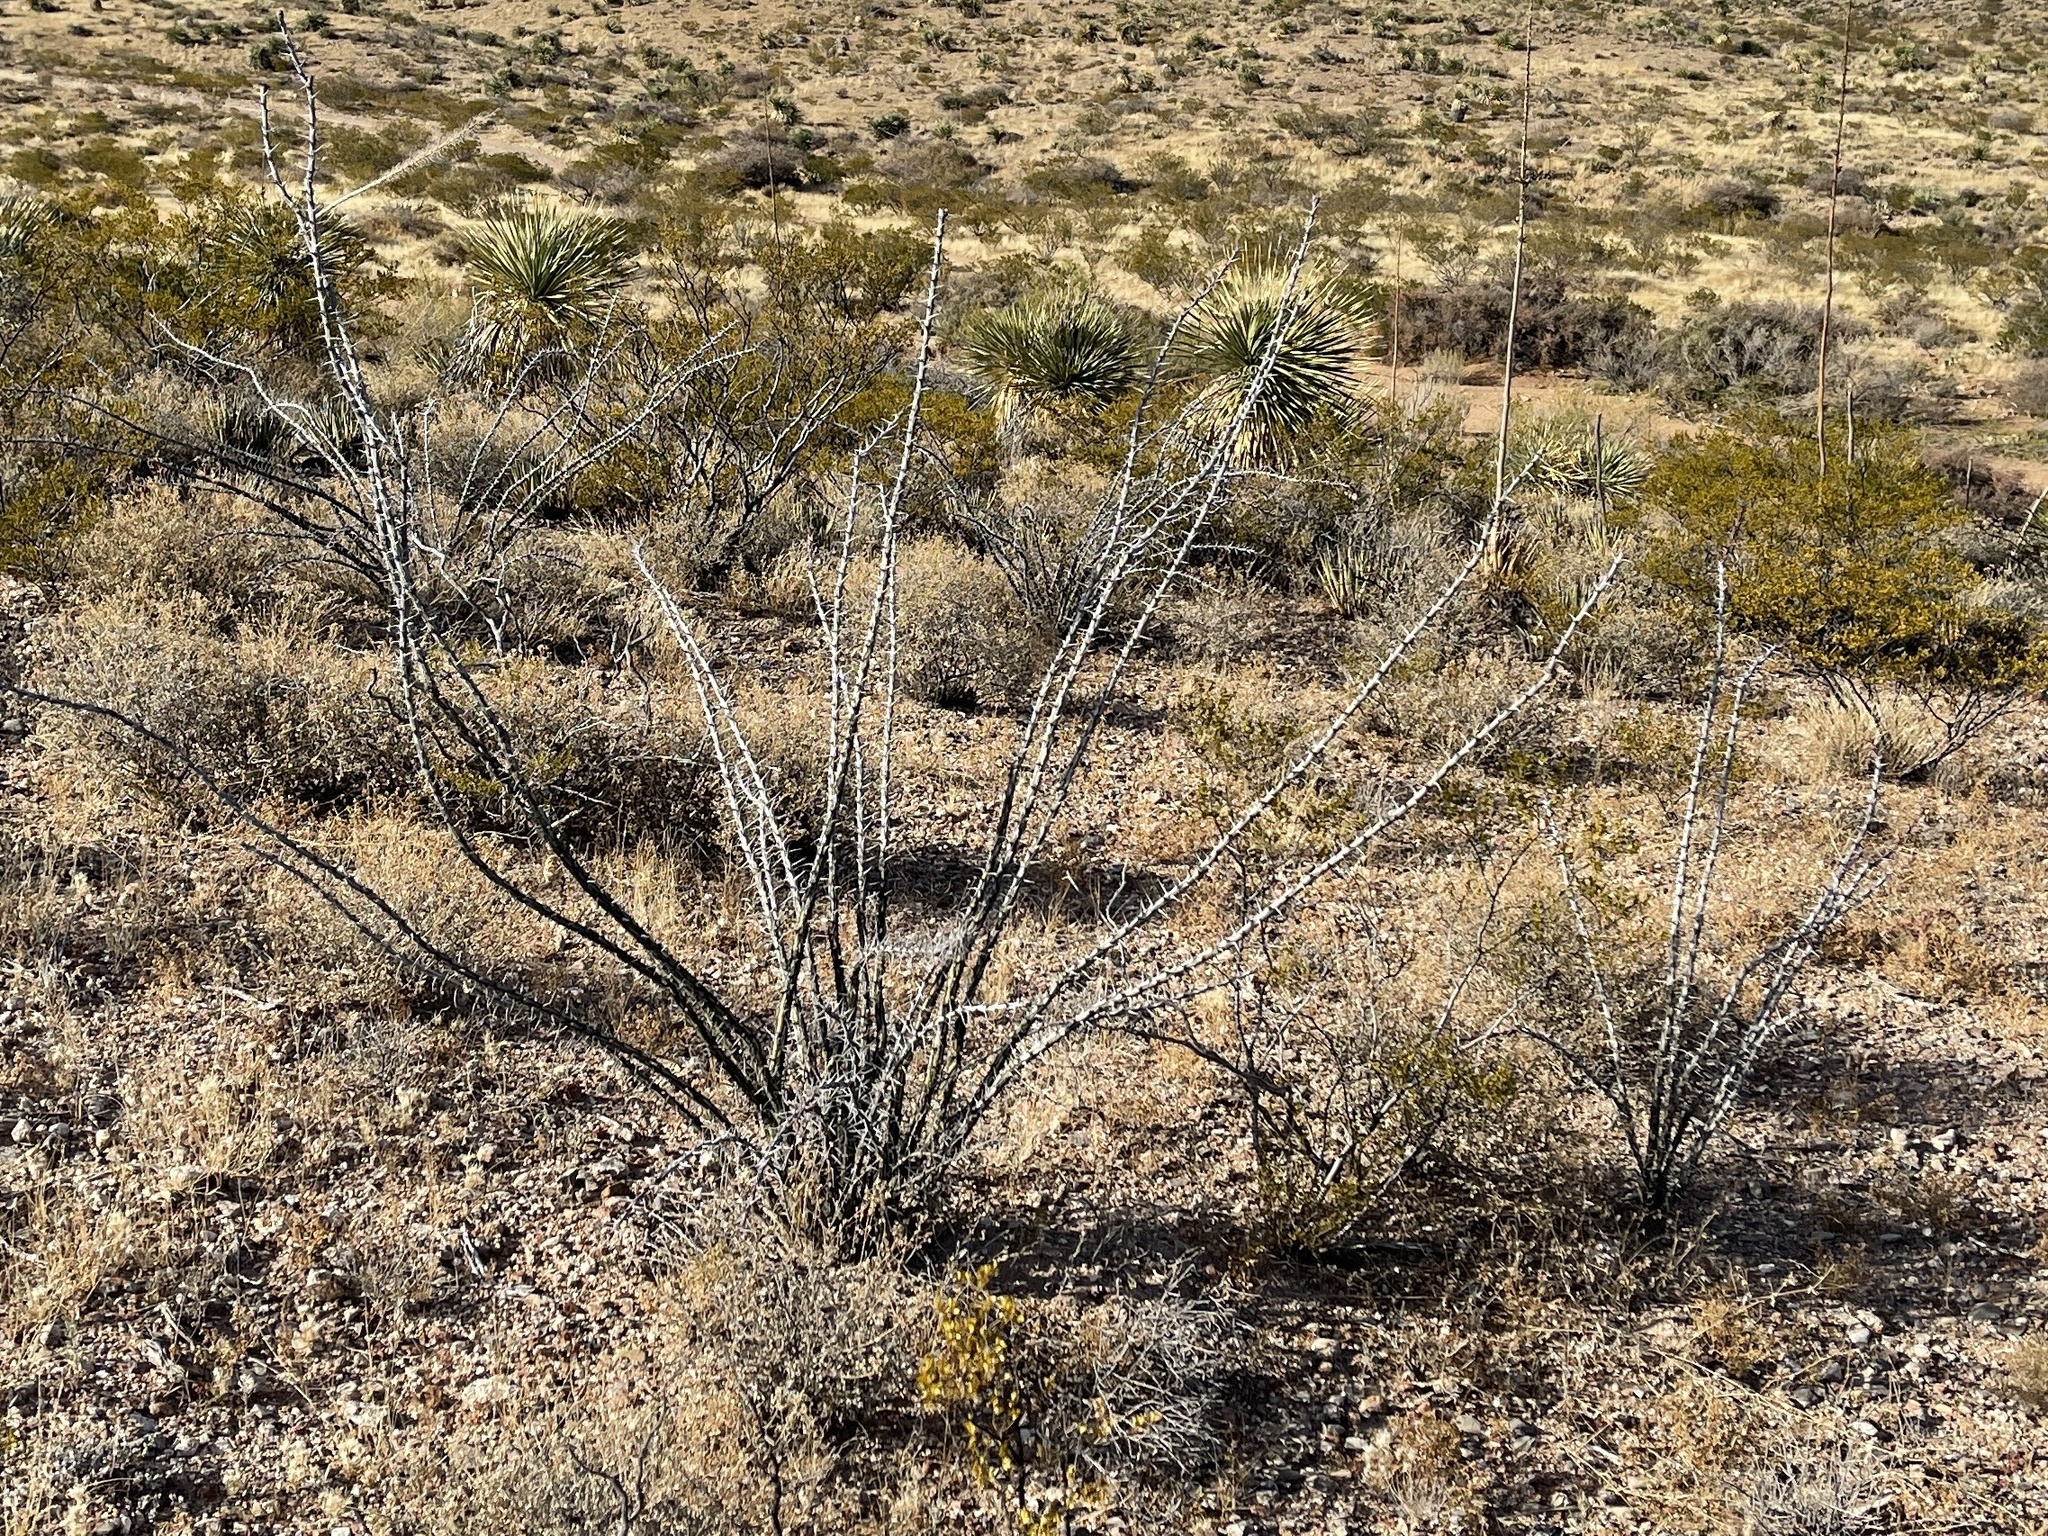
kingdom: Plantae
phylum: Tracheophyta
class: Magnoliopsida
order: Ericales
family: Fouquieriaceae
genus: Fouquieria
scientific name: Fouquieria splendens
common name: Vine-cactus
